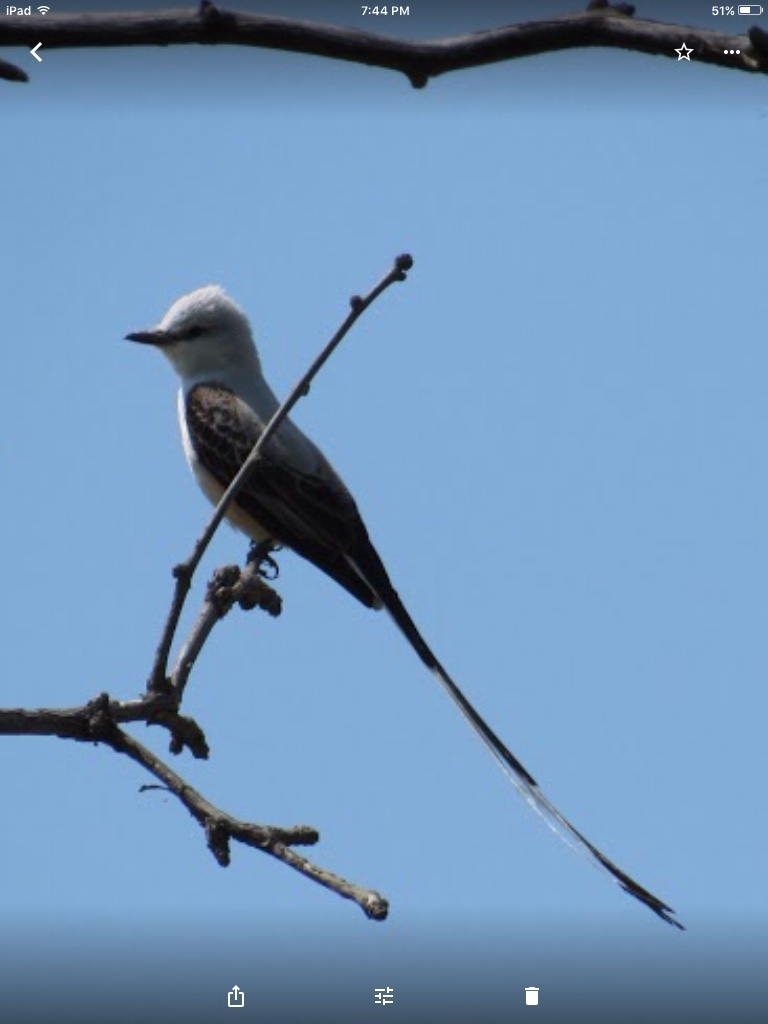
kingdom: Animalia
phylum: Chordata
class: Aves
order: Passeriformes
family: Tyrannidae
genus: Tyrannus
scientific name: Tyrannus forficatus
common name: Scissor-tailed flycatcher
